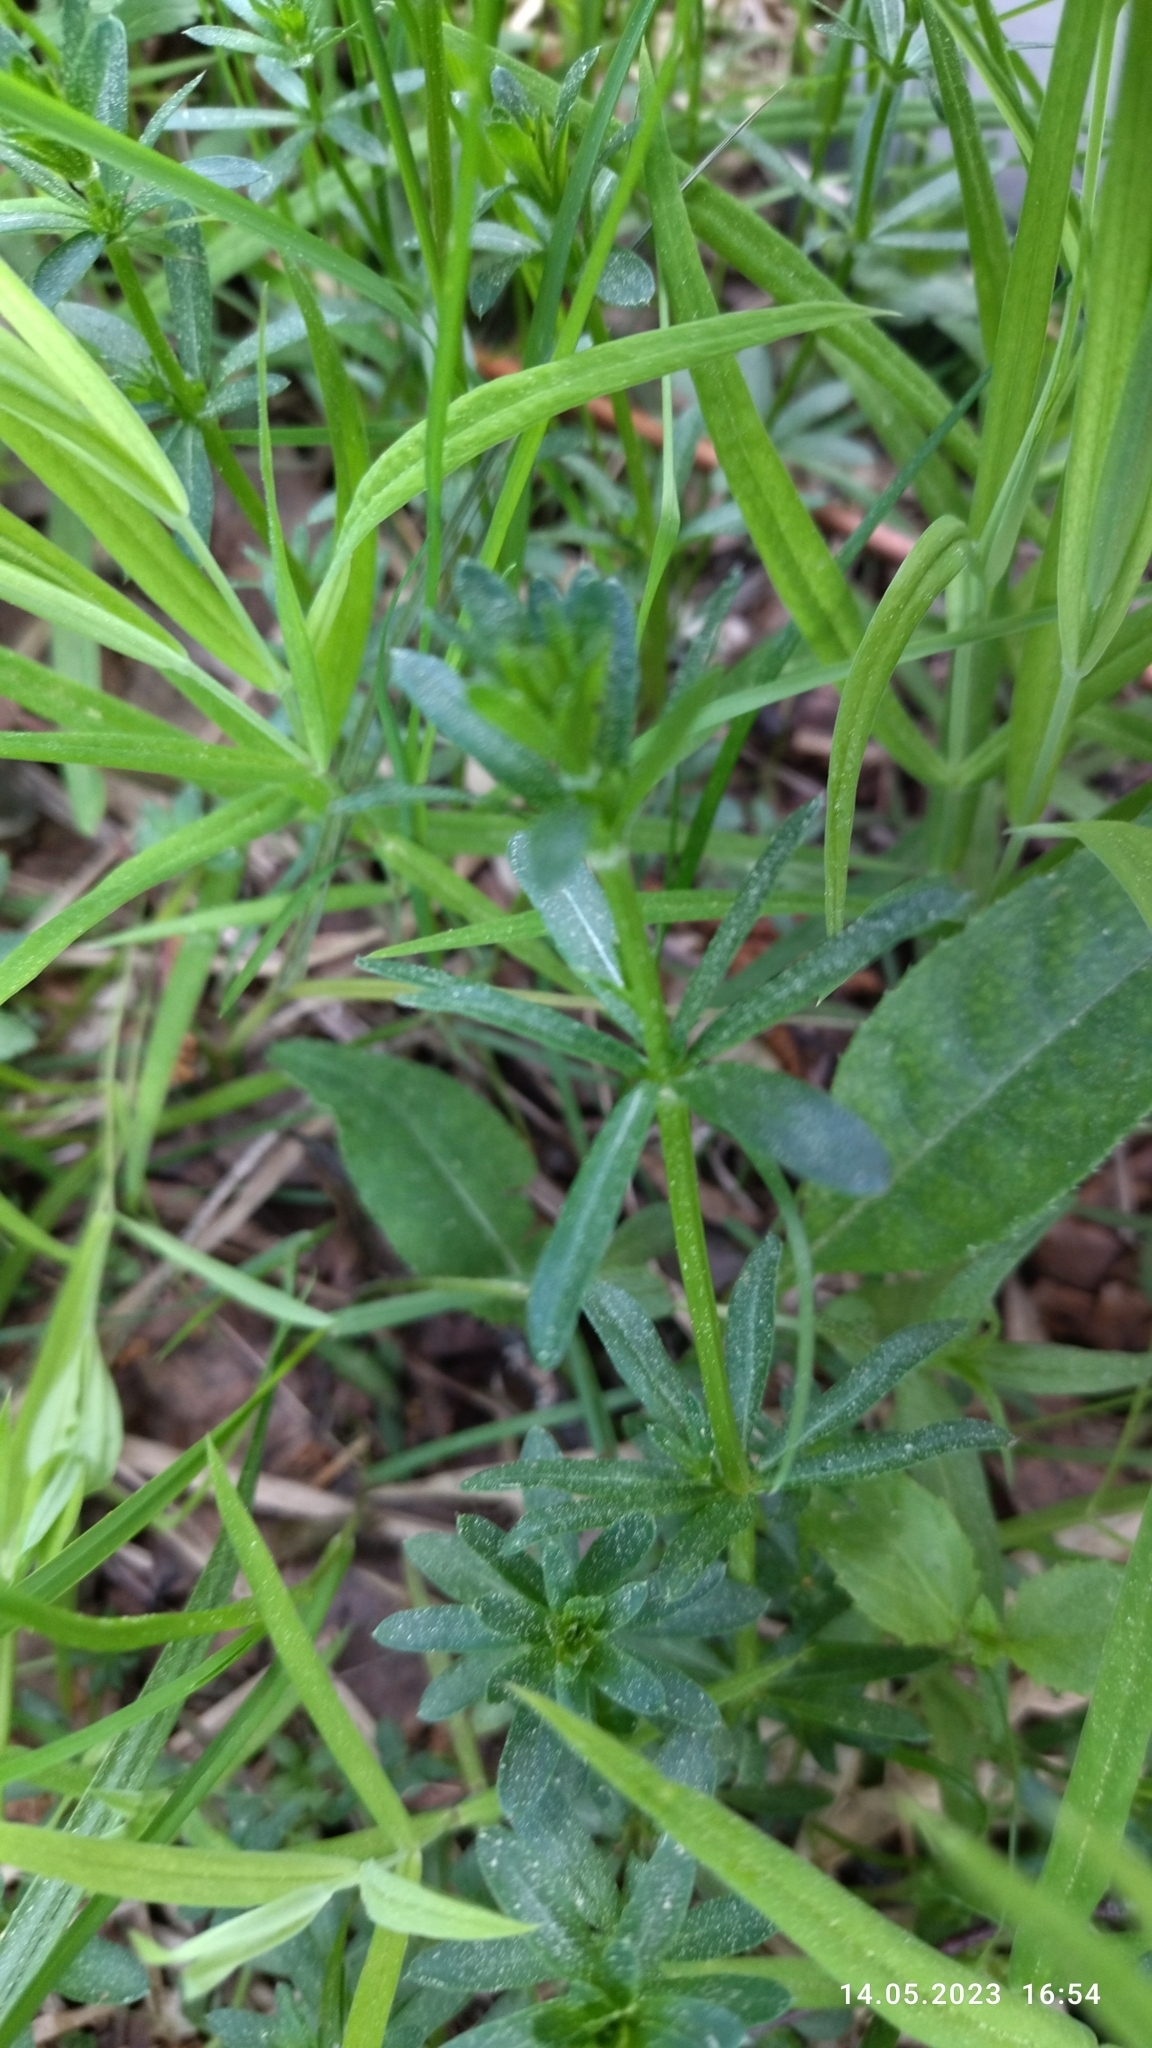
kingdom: Plantae
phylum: Tracheophyta
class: Magnoliopsida
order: Gentianales
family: Rubiaceae
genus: Galium
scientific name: Galium mollugo
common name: Hedge bedstraw
